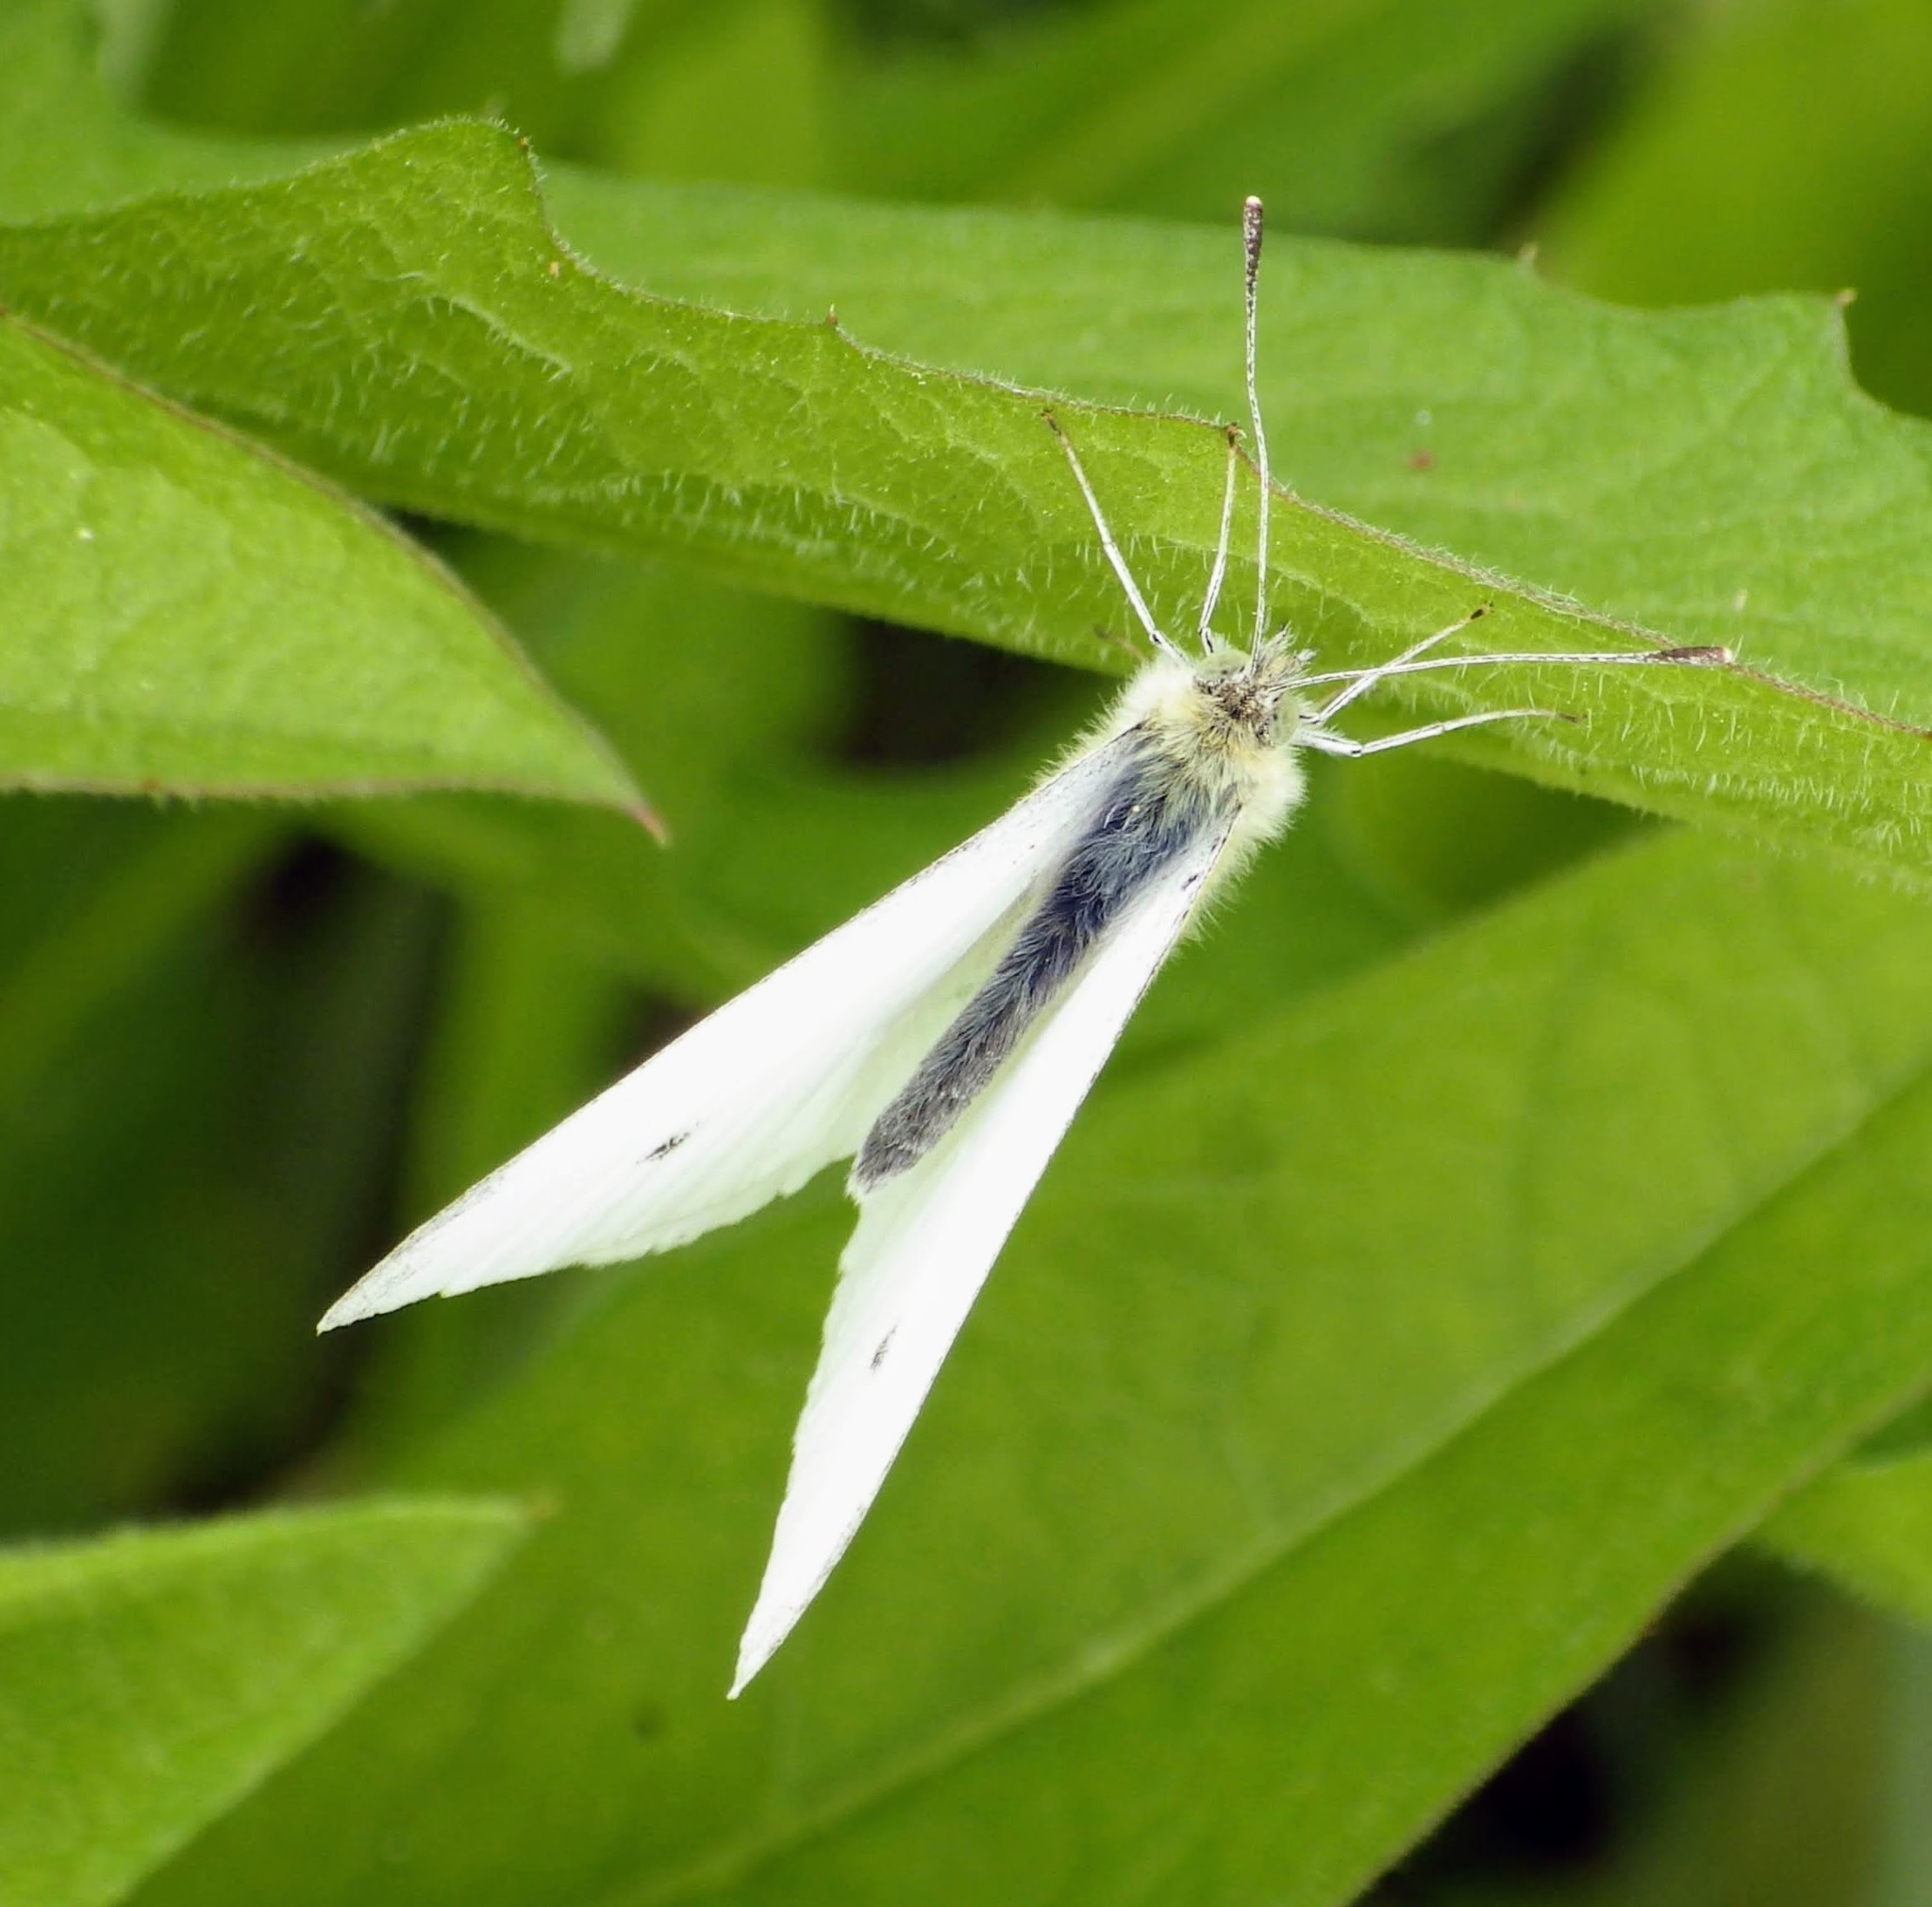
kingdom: Animalia
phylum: Arthropoda
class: Insecta
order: Lepidoptera
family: Pieridae
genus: Pieris
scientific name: Pieris rapae
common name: Small white
